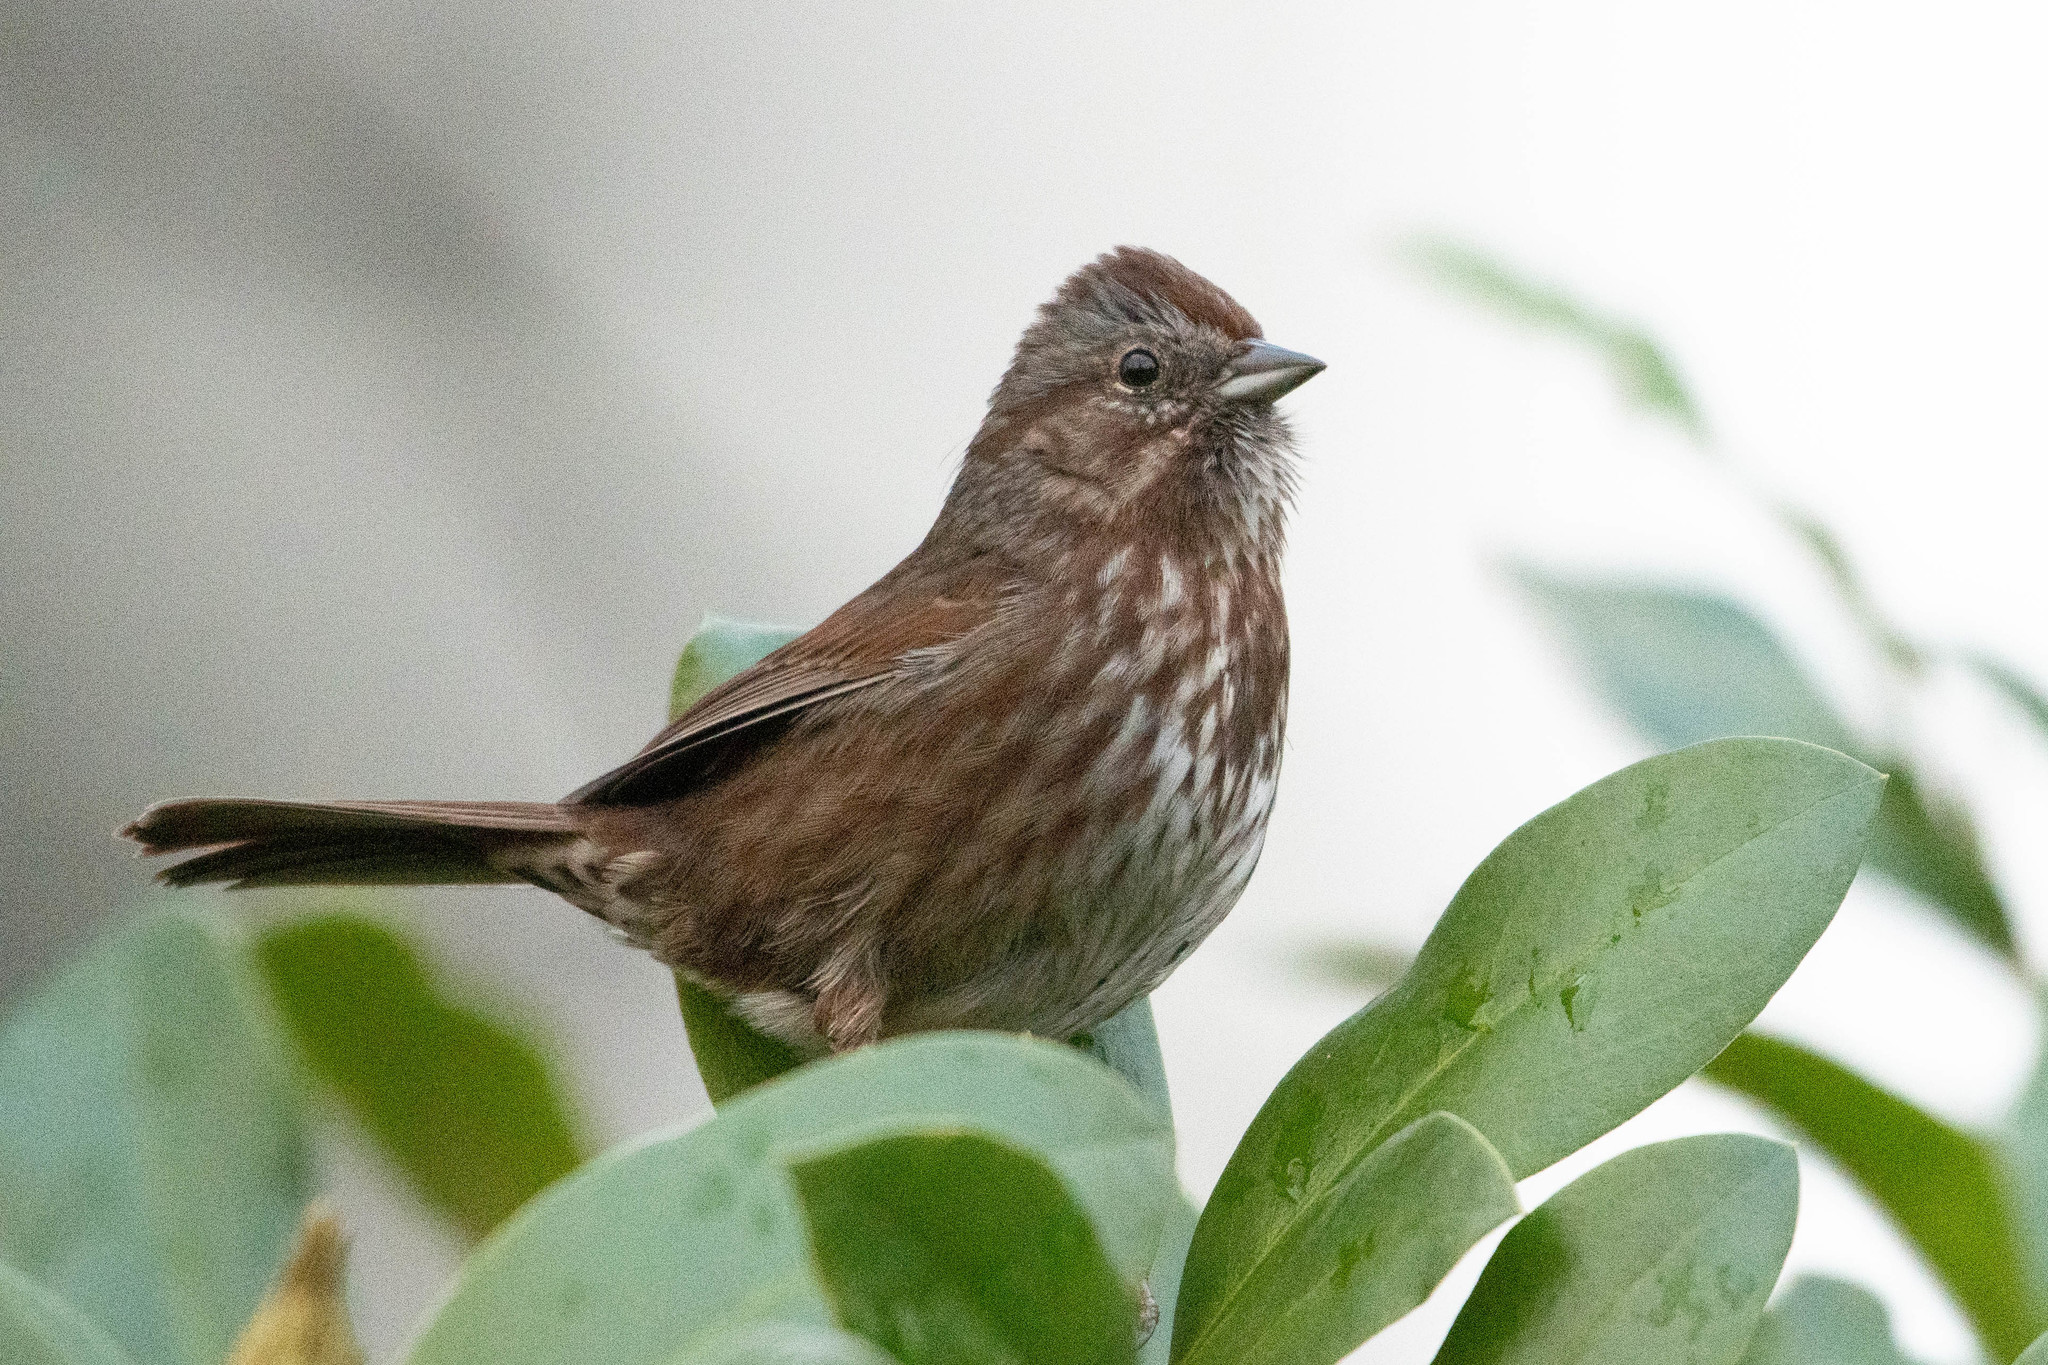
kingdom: Animalia
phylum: Chordata
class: Aves
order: Passeriformes
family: Passerellidae
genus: Melospiza
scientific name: Melospiza melodia
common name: Song sparrow
